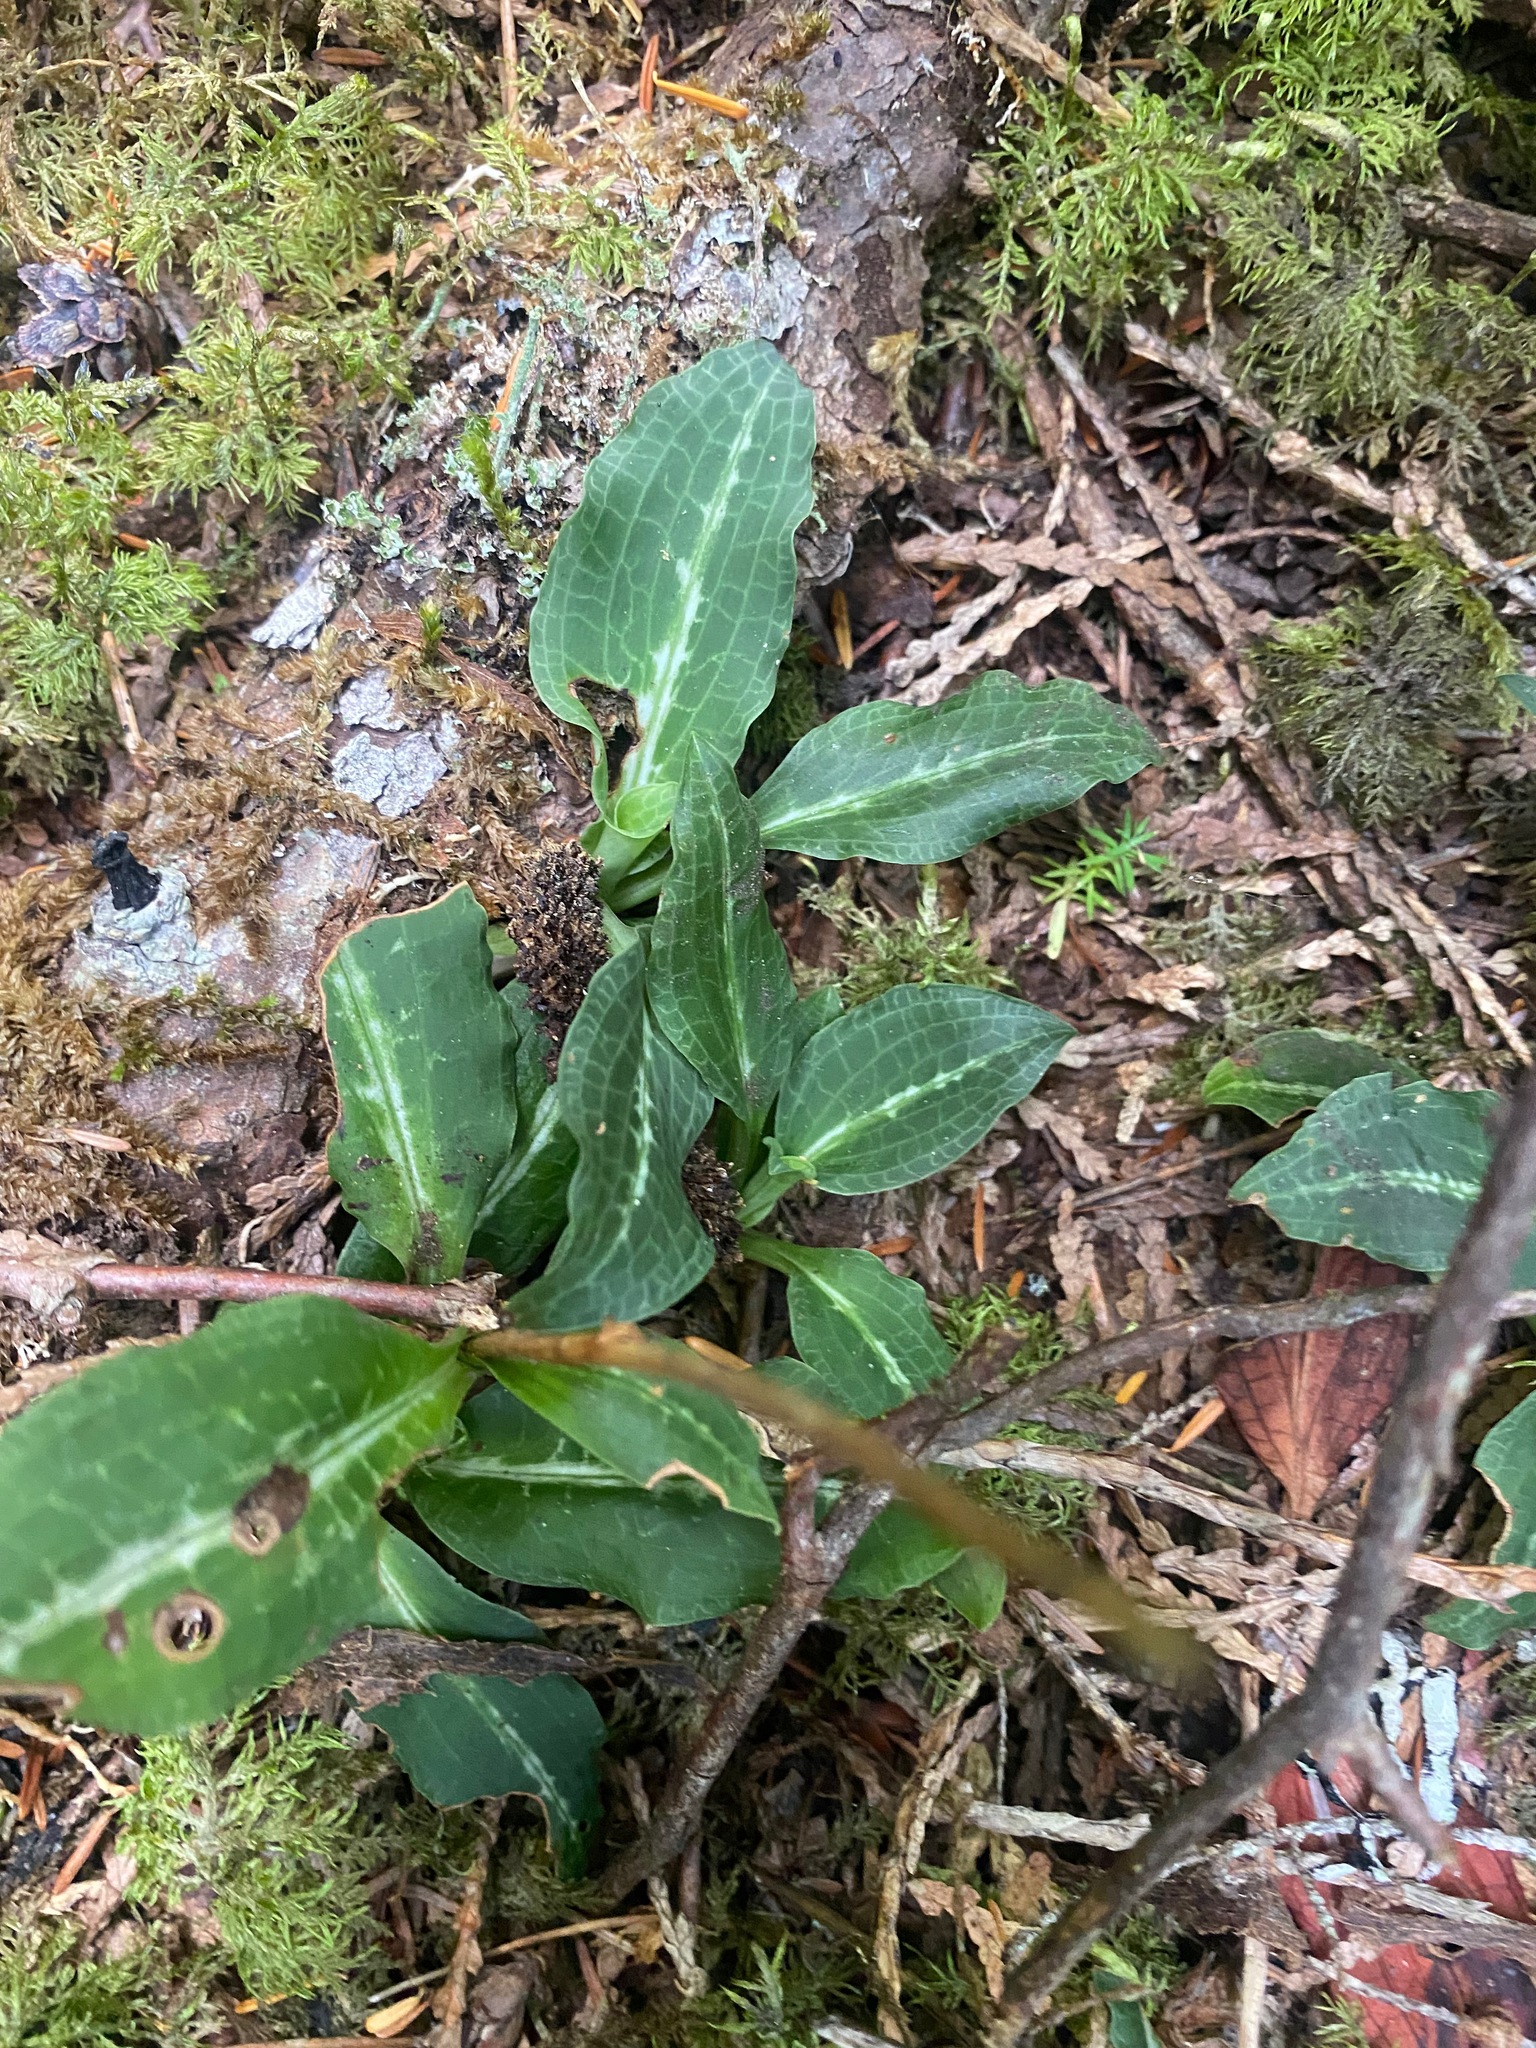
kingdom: Plantae
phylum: Tracheophyta
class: Liliopsida
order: Asparagales
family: Orchidaceae
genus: Goodyera
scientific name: Goodyera oblongifolia
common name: Giant rattlesnake-plantain
